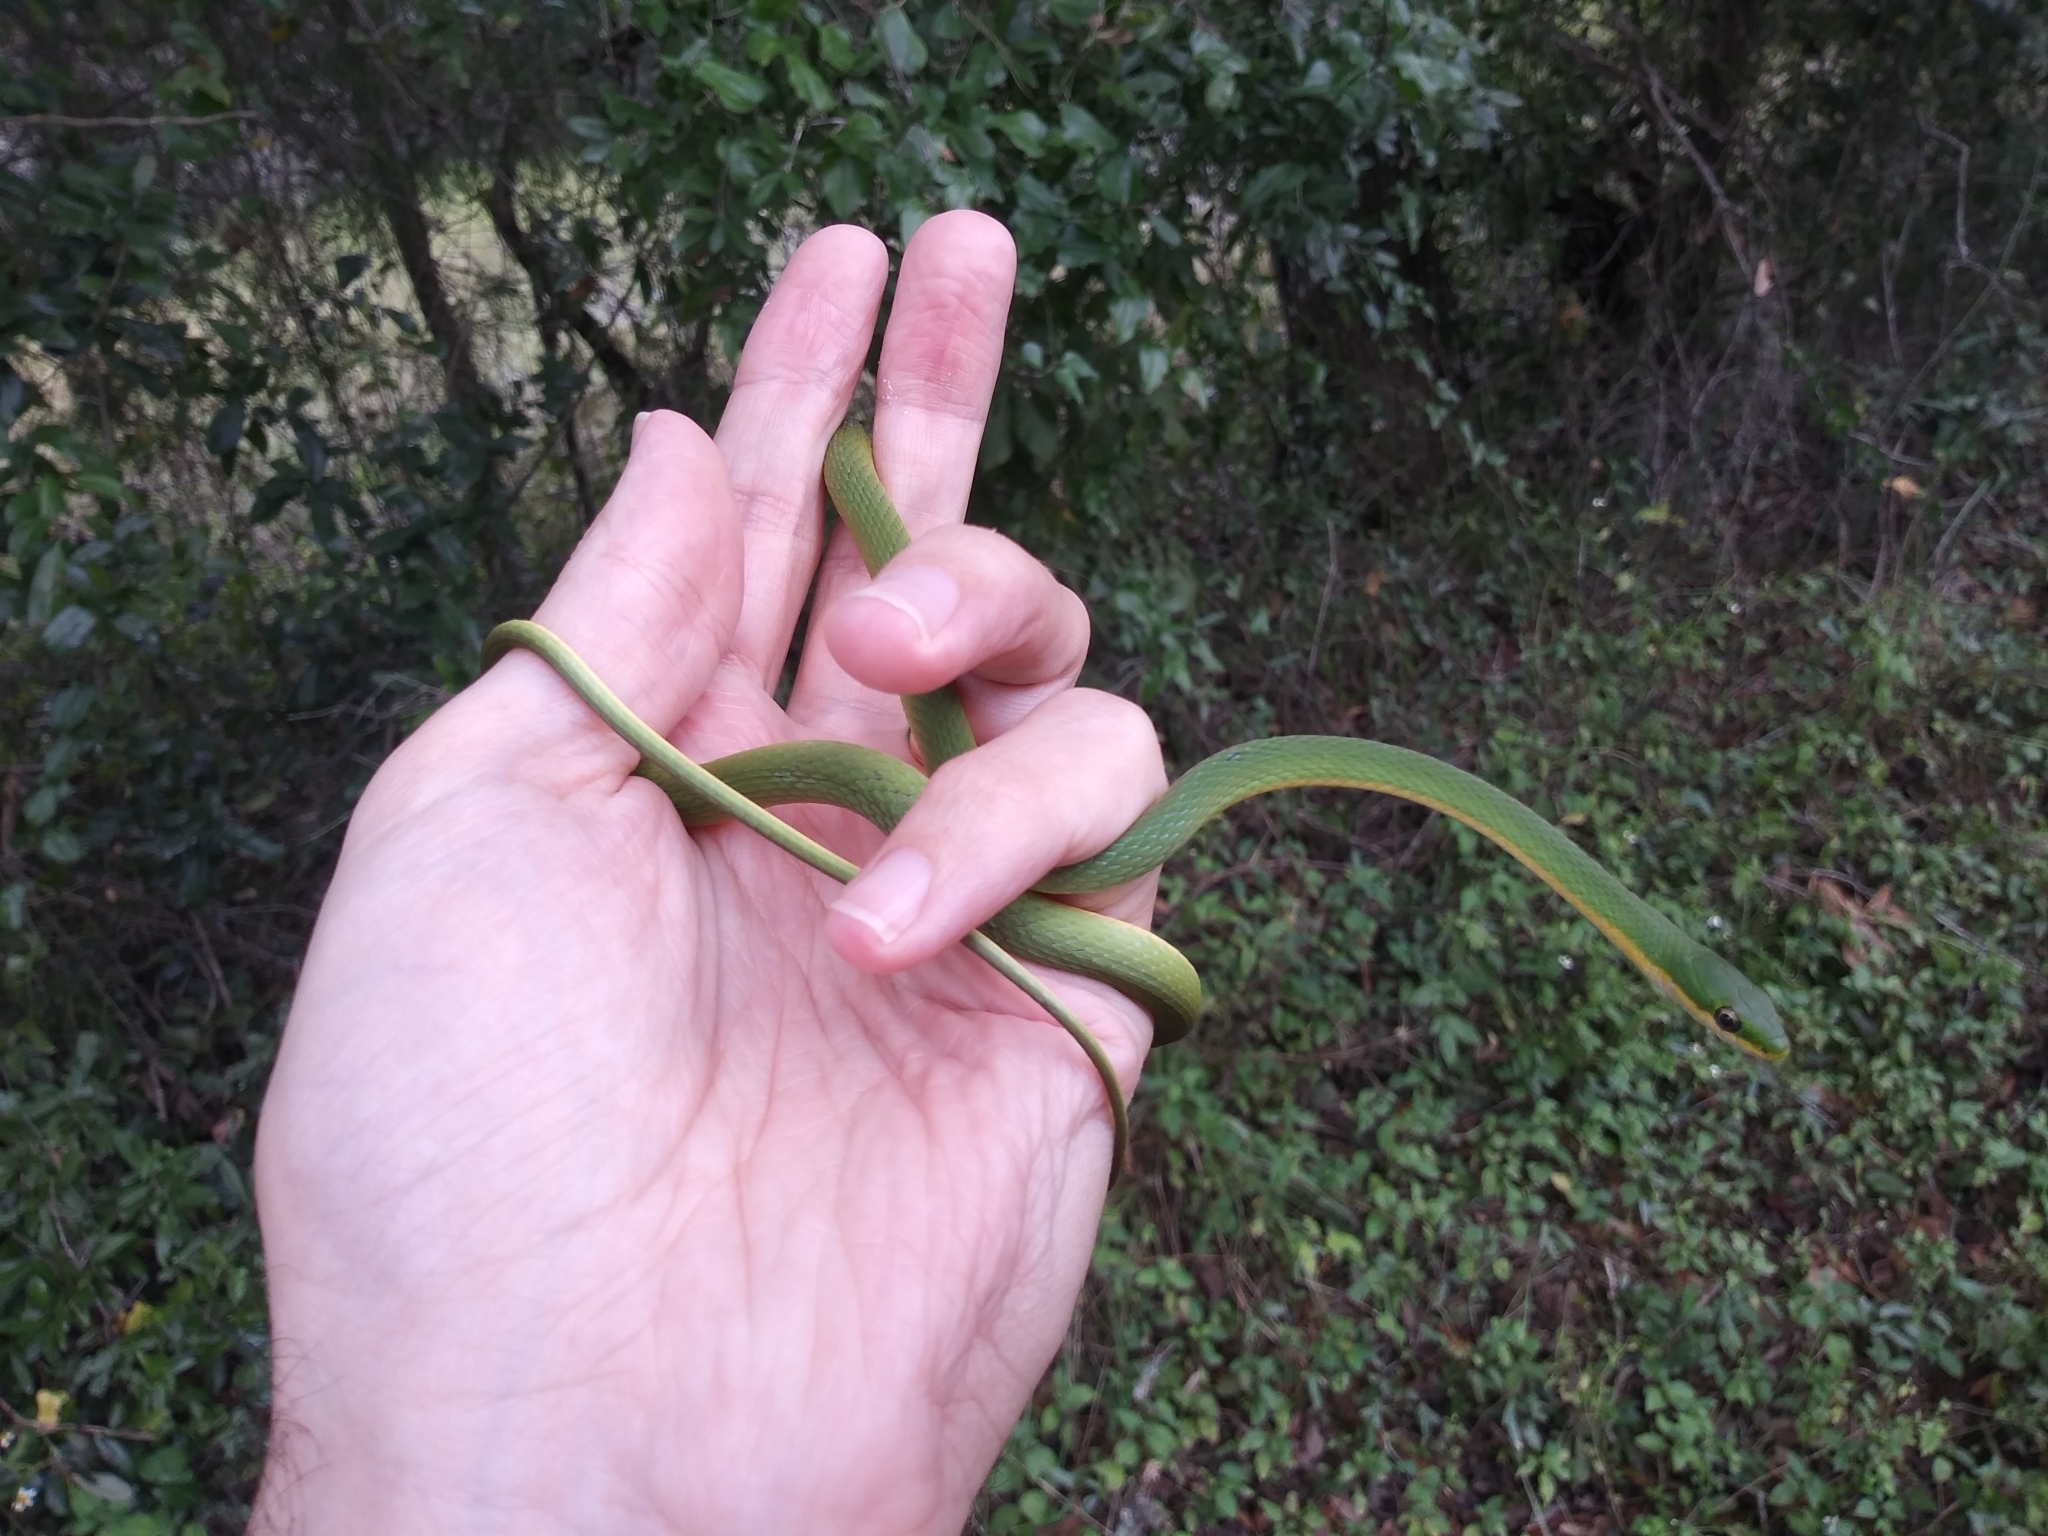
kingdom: Animalia
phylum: Chordata
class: Squamata
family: Colubridae
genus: Opheodrys
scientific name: Opheodrys aestivus
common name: Rough greensnake
